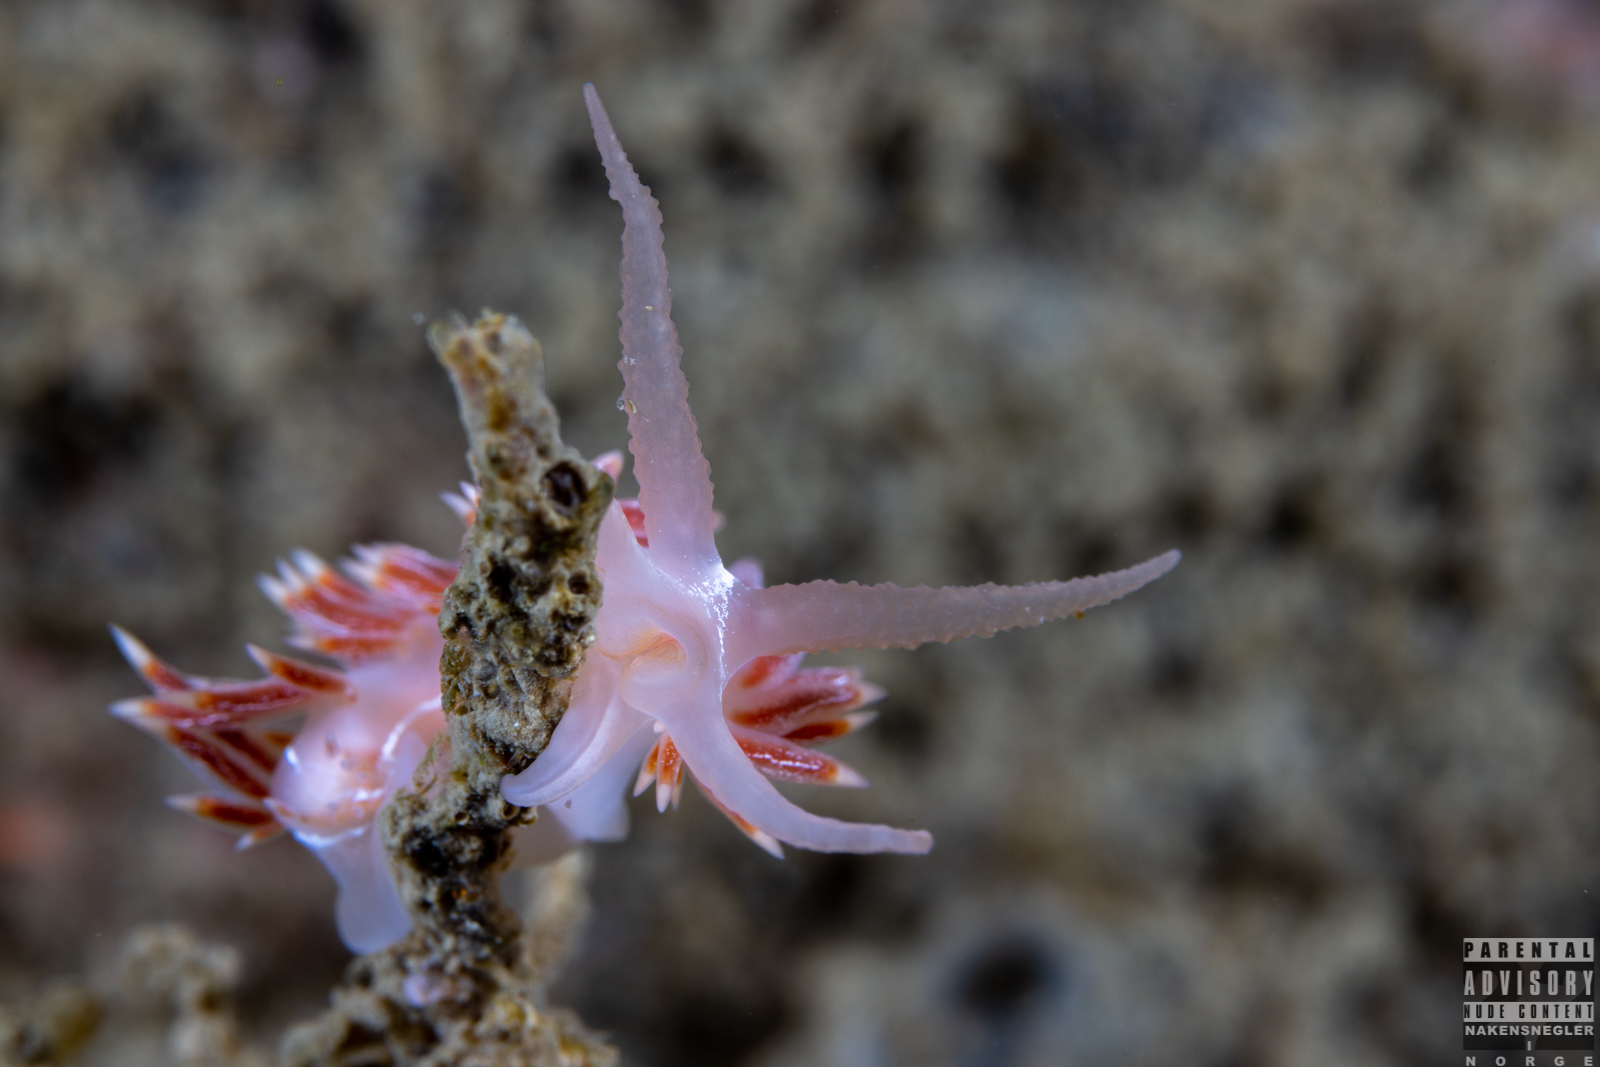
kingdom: Animalia
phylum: Mollusca
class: Gastropoda
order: Nudibranchia
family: Coryphellidae
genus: Coryphella
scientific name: Coryphella chriskaugei
